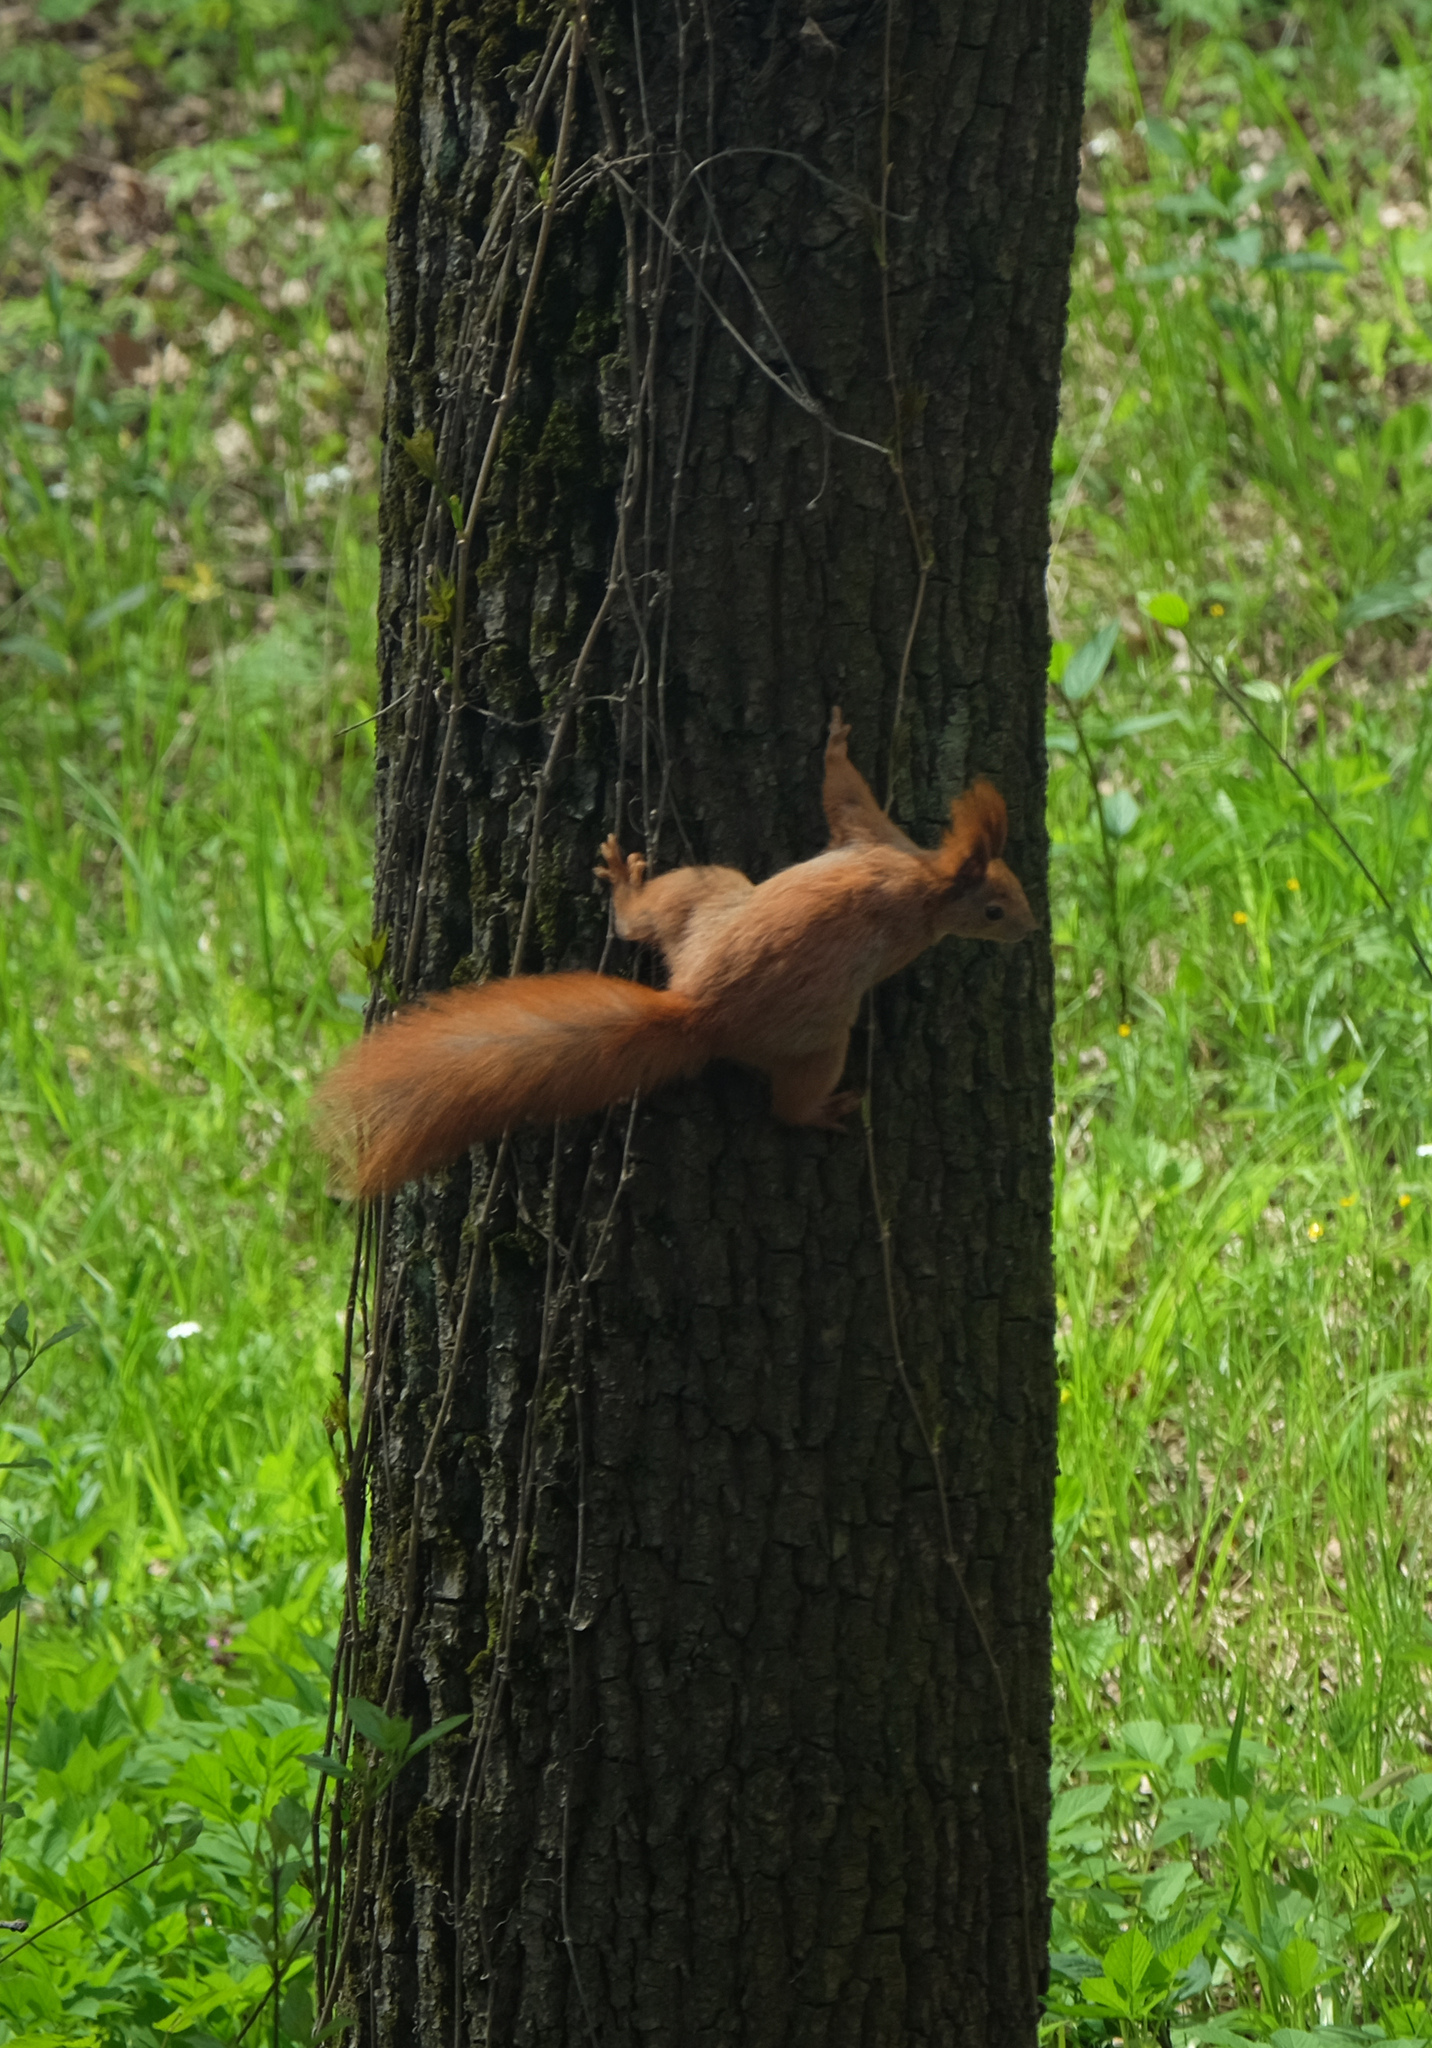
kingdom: Animalia
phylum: Chordata
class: Mammalia
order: Rodentia
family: Sciuridae
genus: Sciurus
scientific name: Sciurus vulgaris
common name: Eurasian red squirrel
